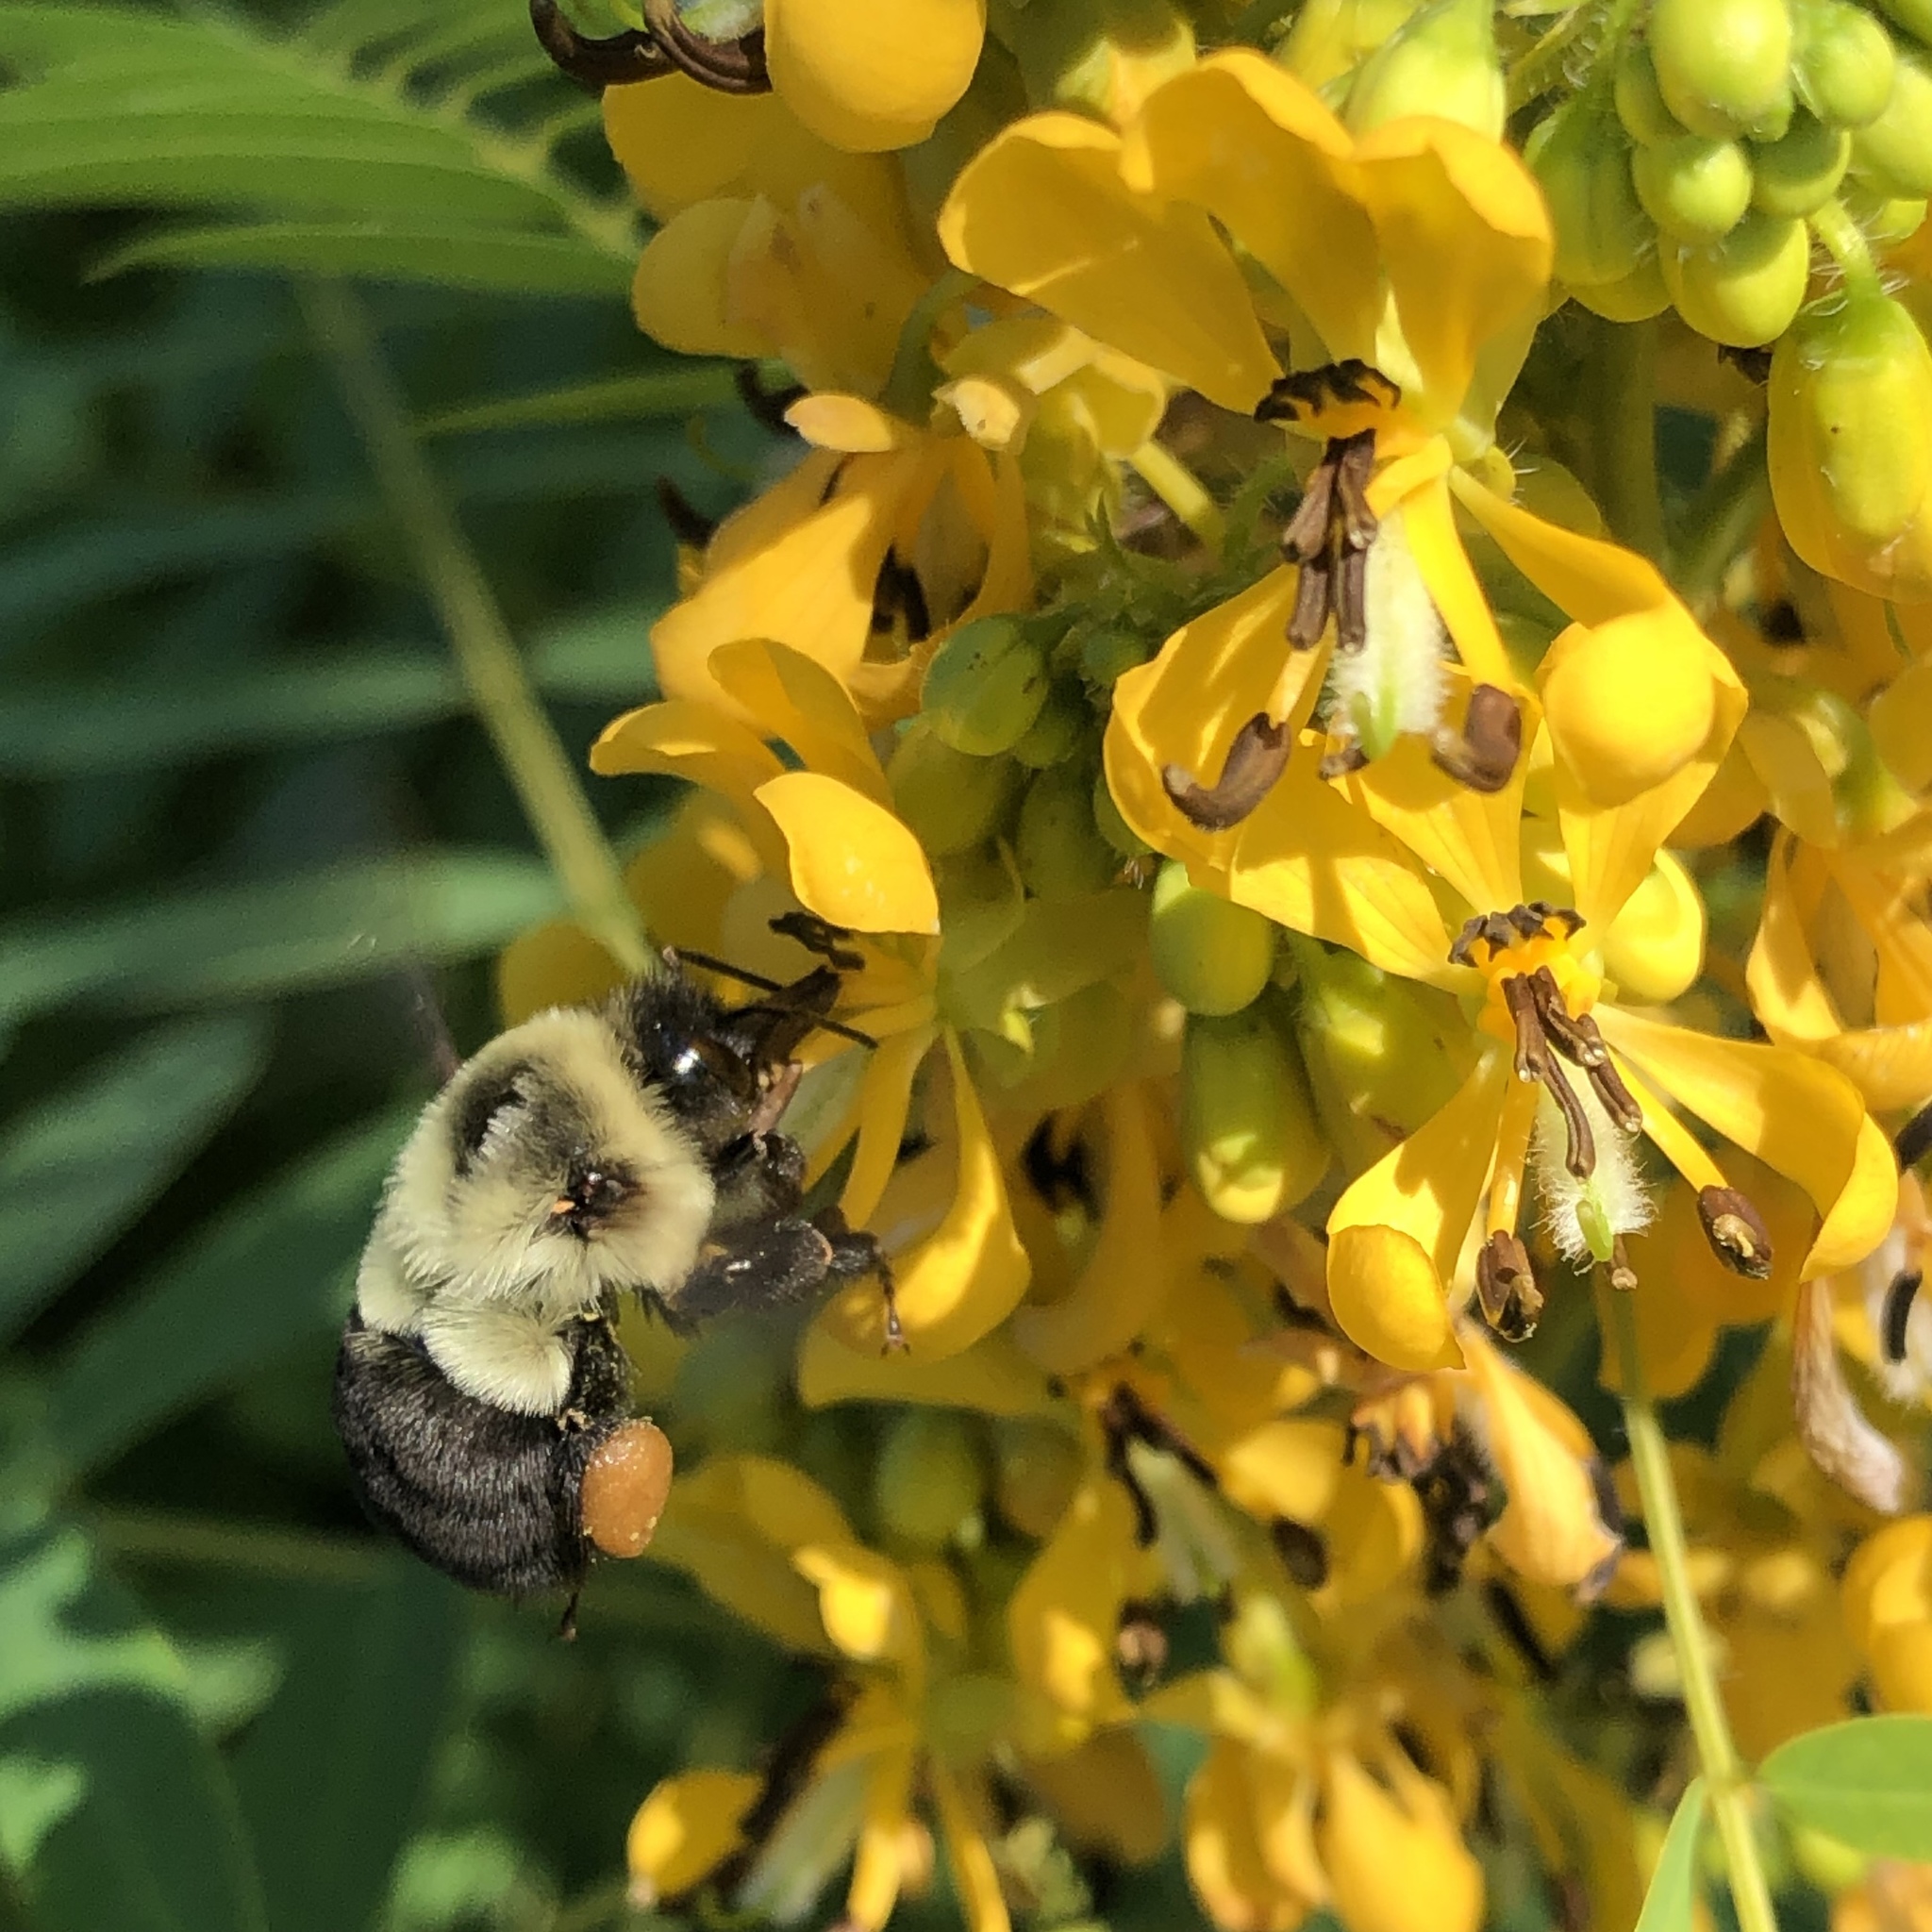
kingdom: Animalia
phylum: Arthropoda
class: Insecta
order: Hymenoptera
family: Apidae
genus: Bombus
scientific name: Bombus impatiens
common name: Common eastern bumble bee
